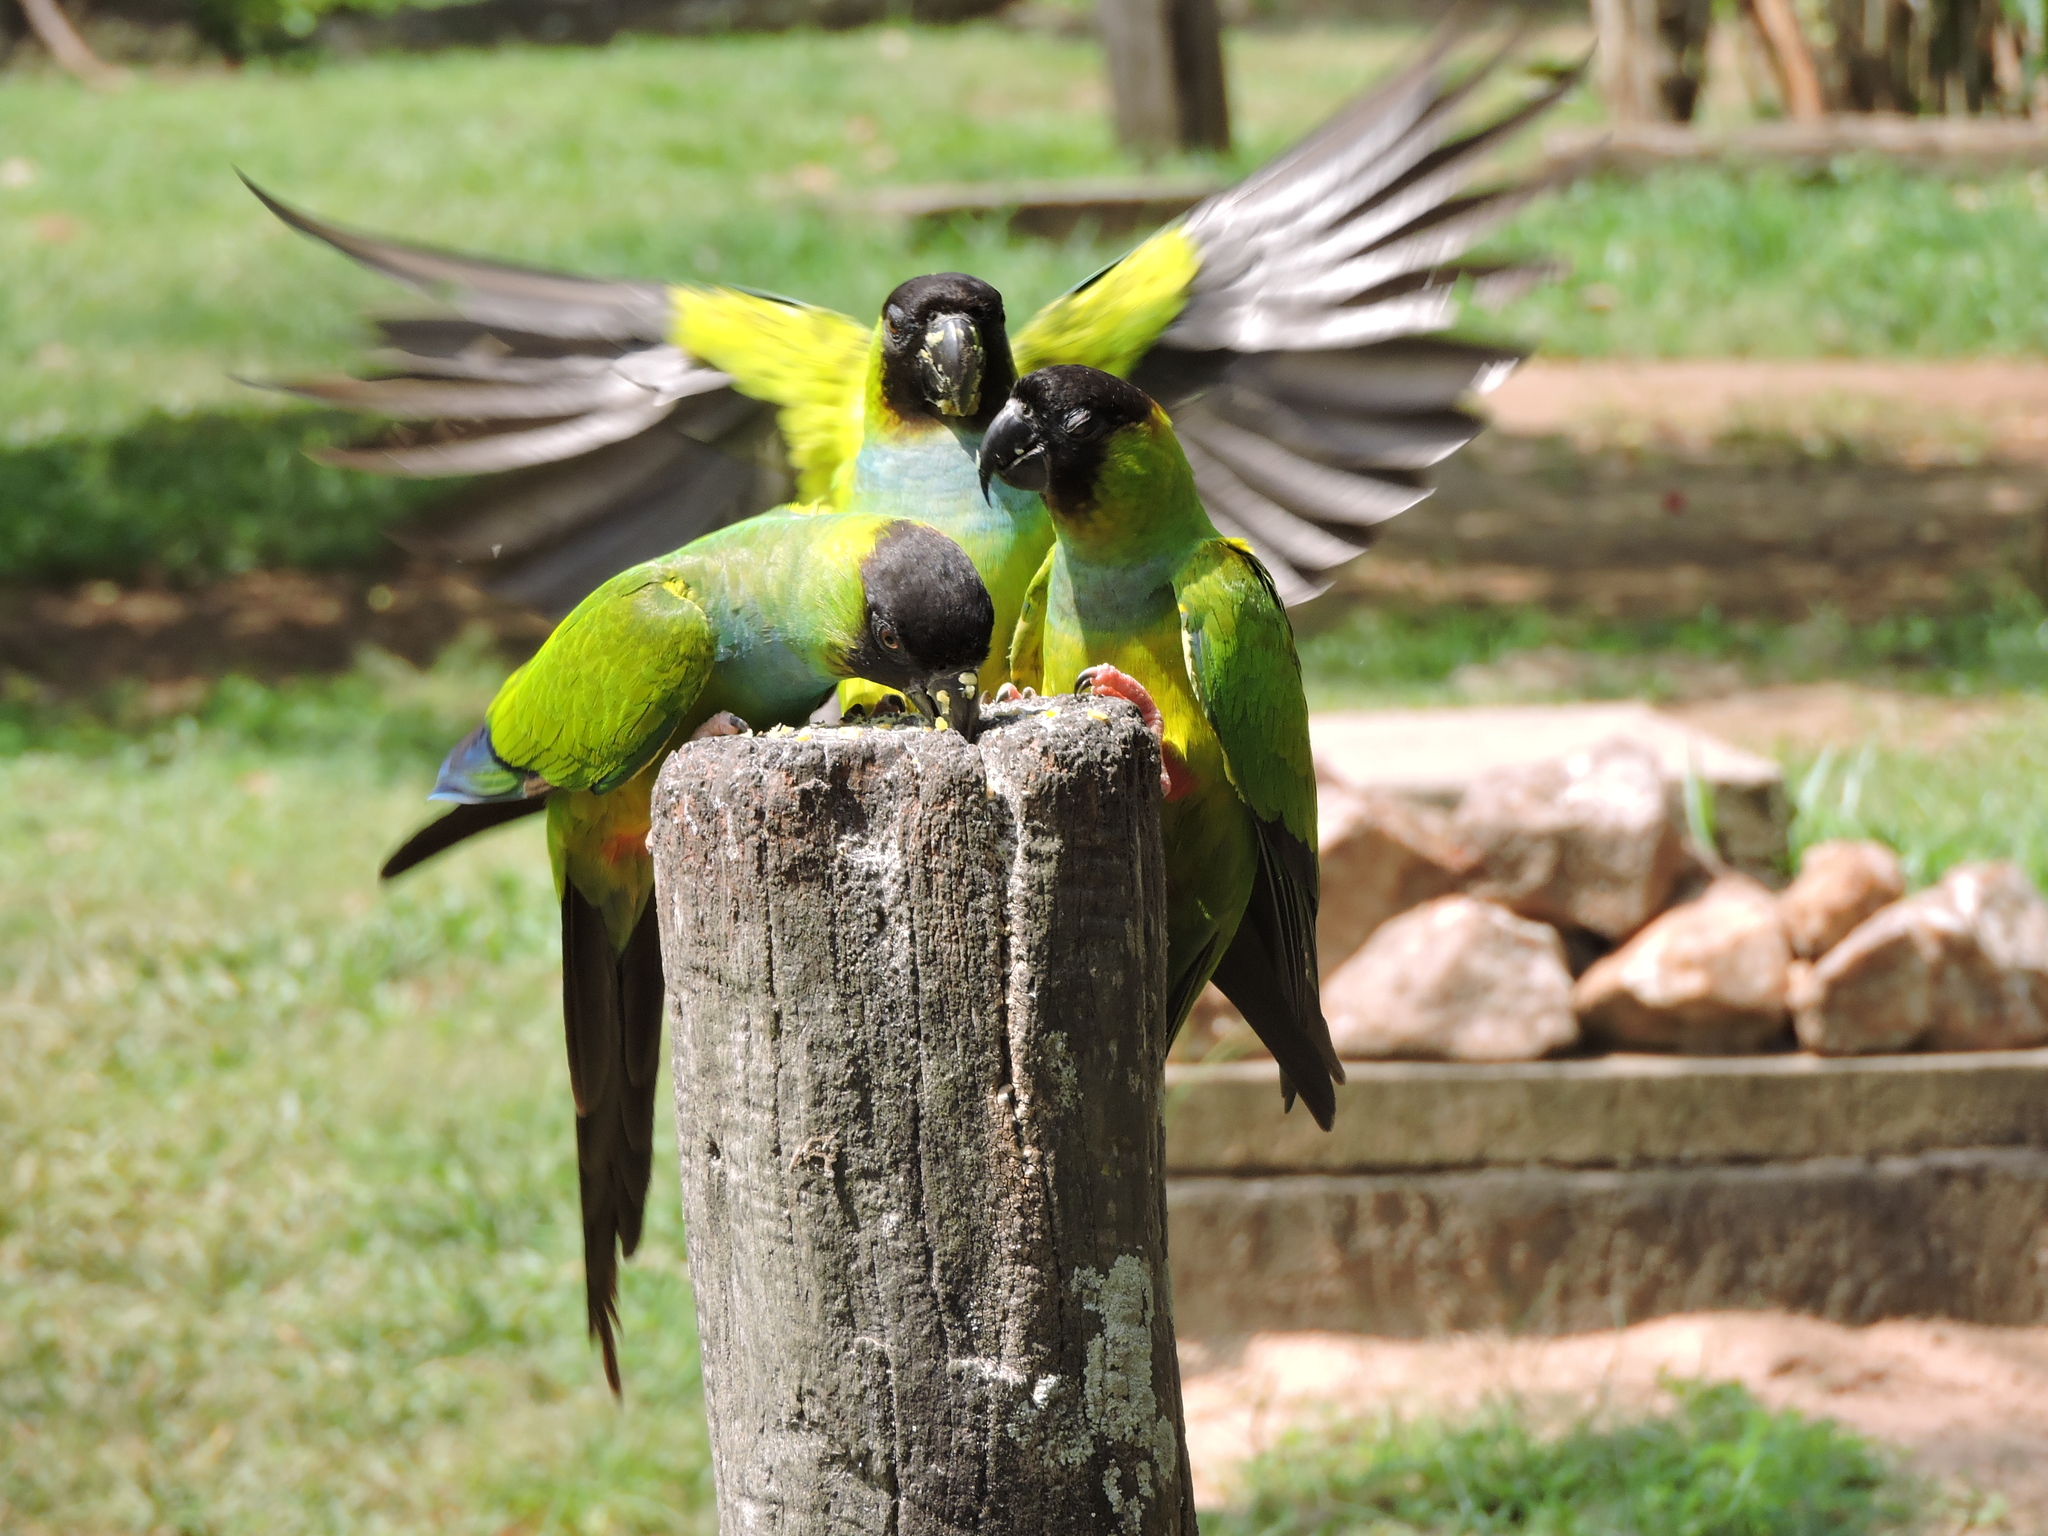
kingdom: Animalia
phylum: Chordata
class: Aves
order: Psittaciformes
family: Psittacidae
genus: Nandayus
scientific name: Nandayus nenday
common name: Nanday parakeet
